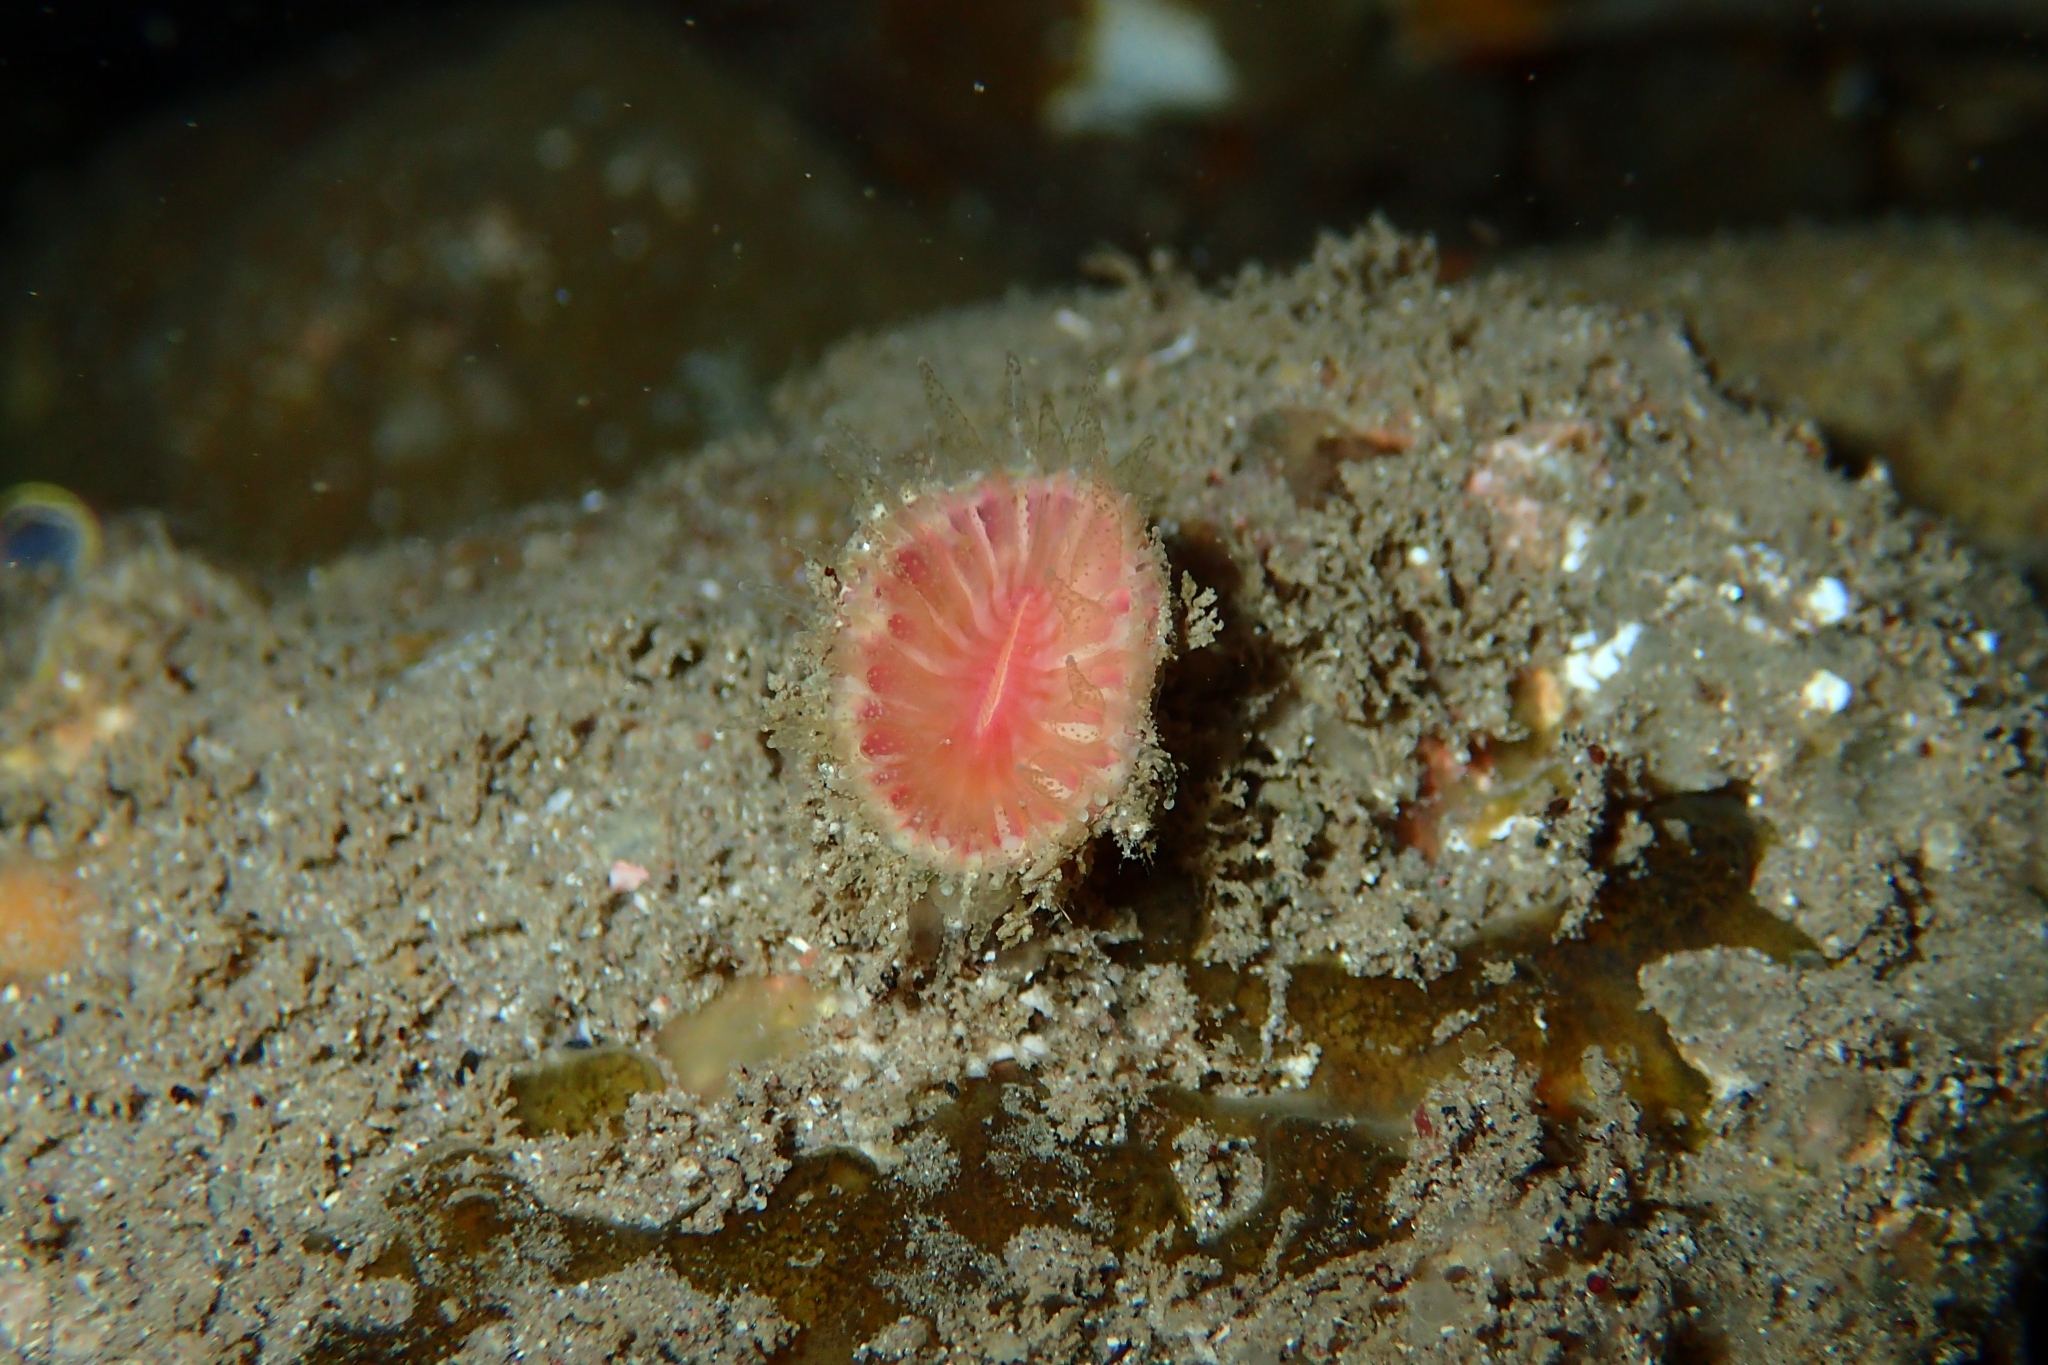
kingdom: Animalia
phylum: Cnidaria
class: Anthozoa
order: Scleractinia
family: Flabellidae
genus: Monomyces
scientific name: Monomyces rubrum
